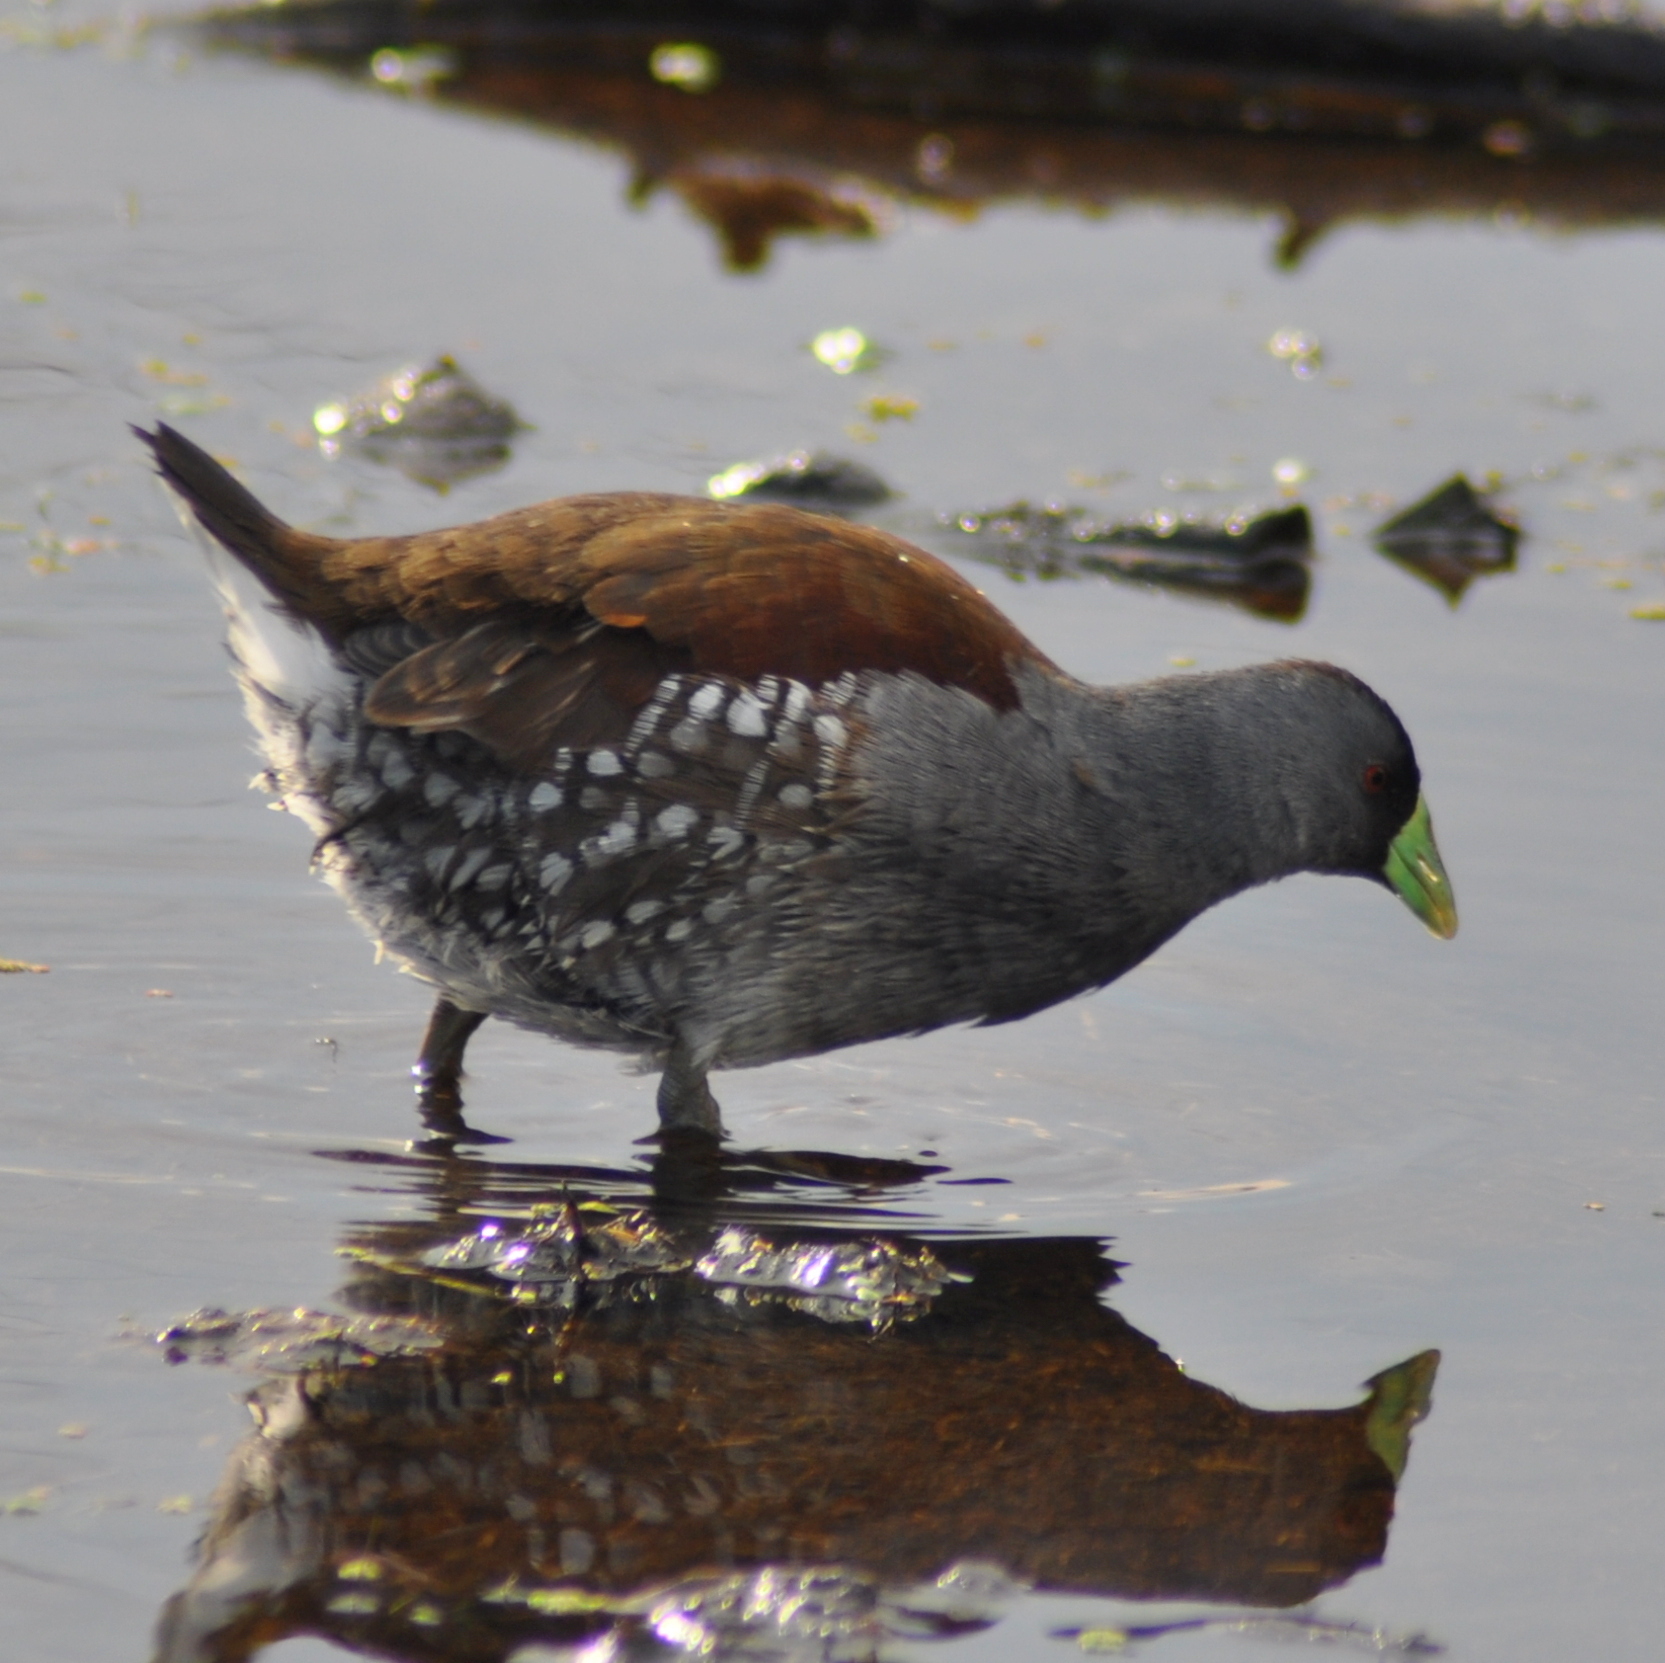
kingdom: Animalia
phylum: Chordata
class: Aves
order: Gruiformes
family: Rallidae
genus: Gallinula
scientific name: Gallinula melanops
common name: Spot-flanked gallinule
